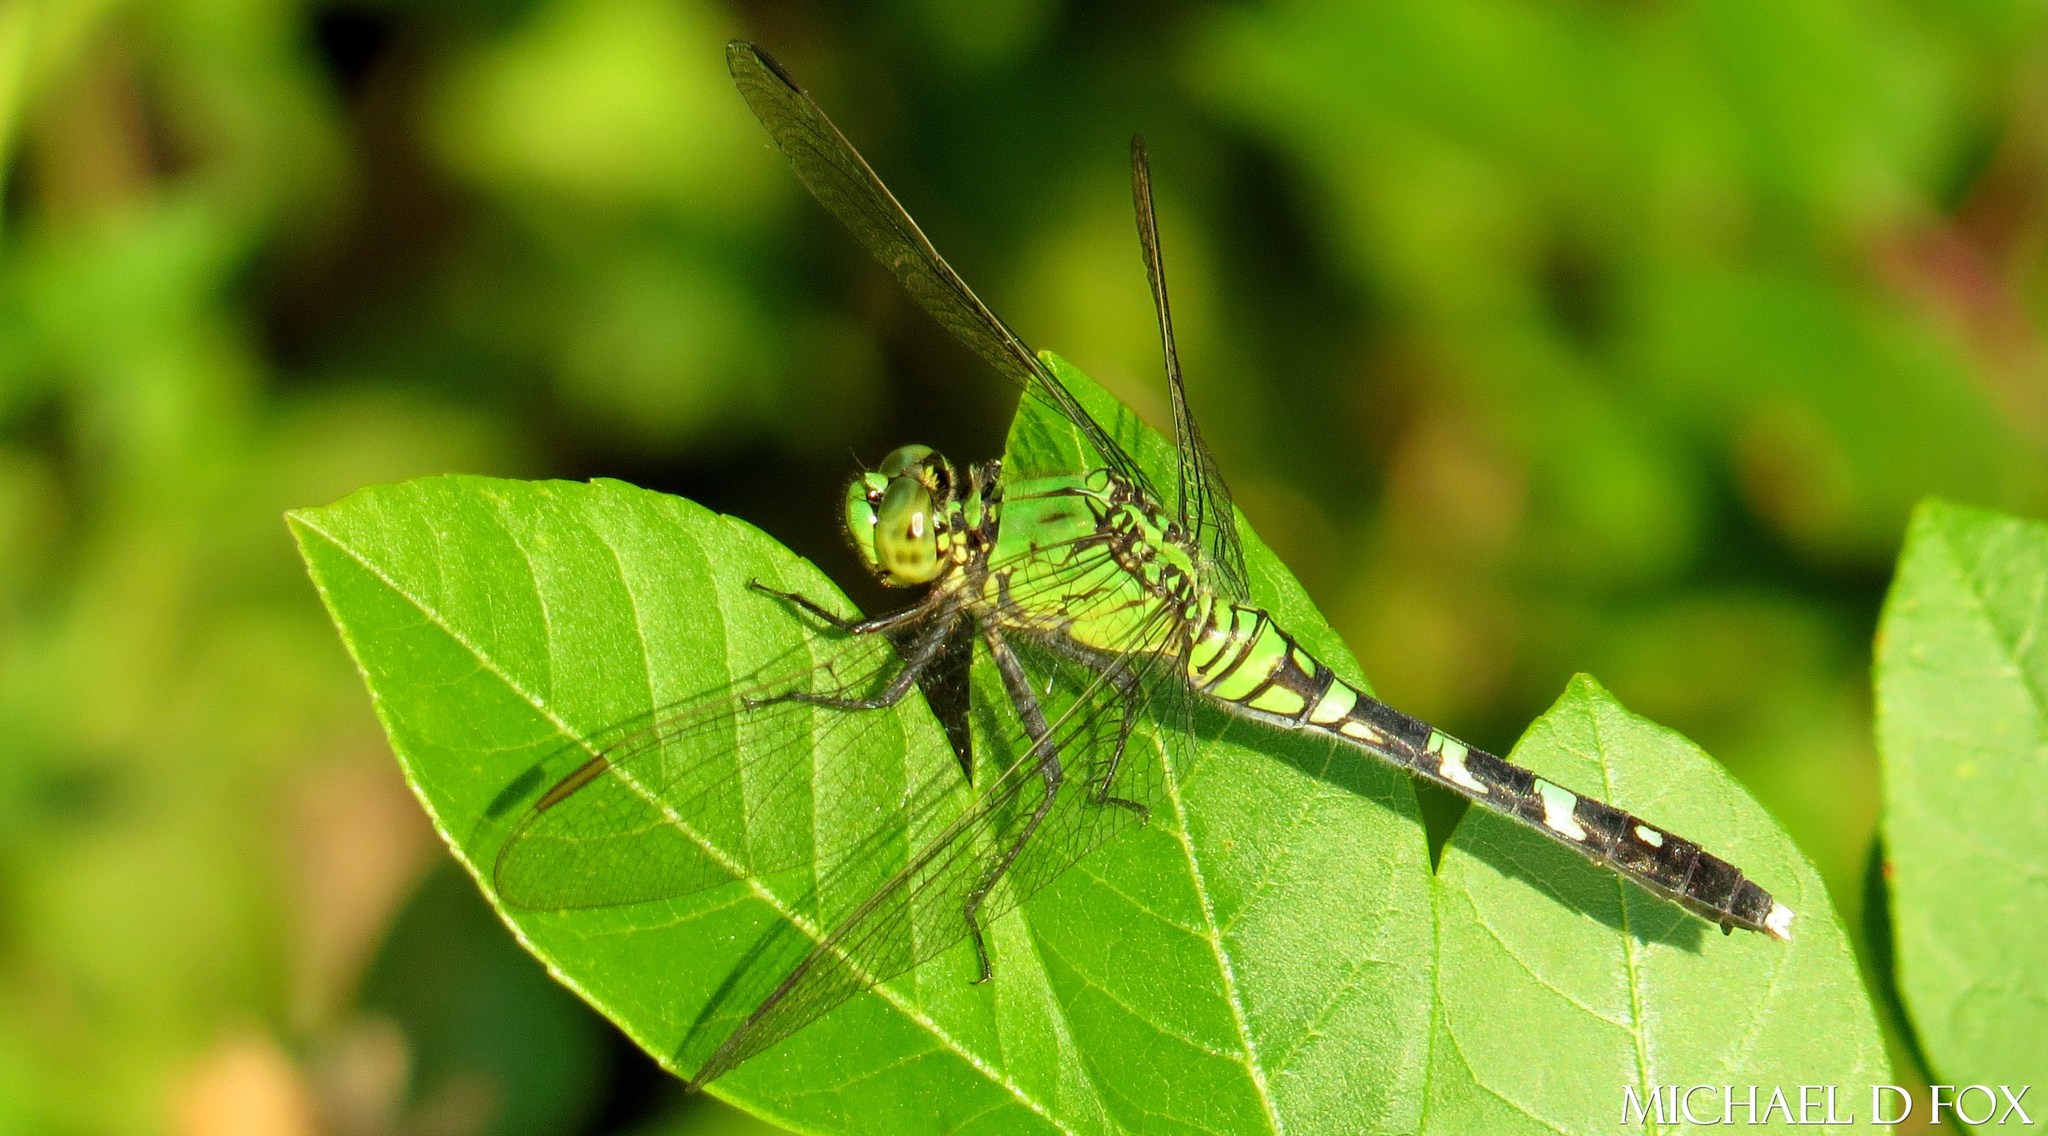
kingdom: Animalia
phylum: Arthropoda
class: Insecta
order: Odonata
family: Libellulidae
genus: Erythemis
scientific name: Erythemis simplicicollis
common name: Eastern pondhawk
